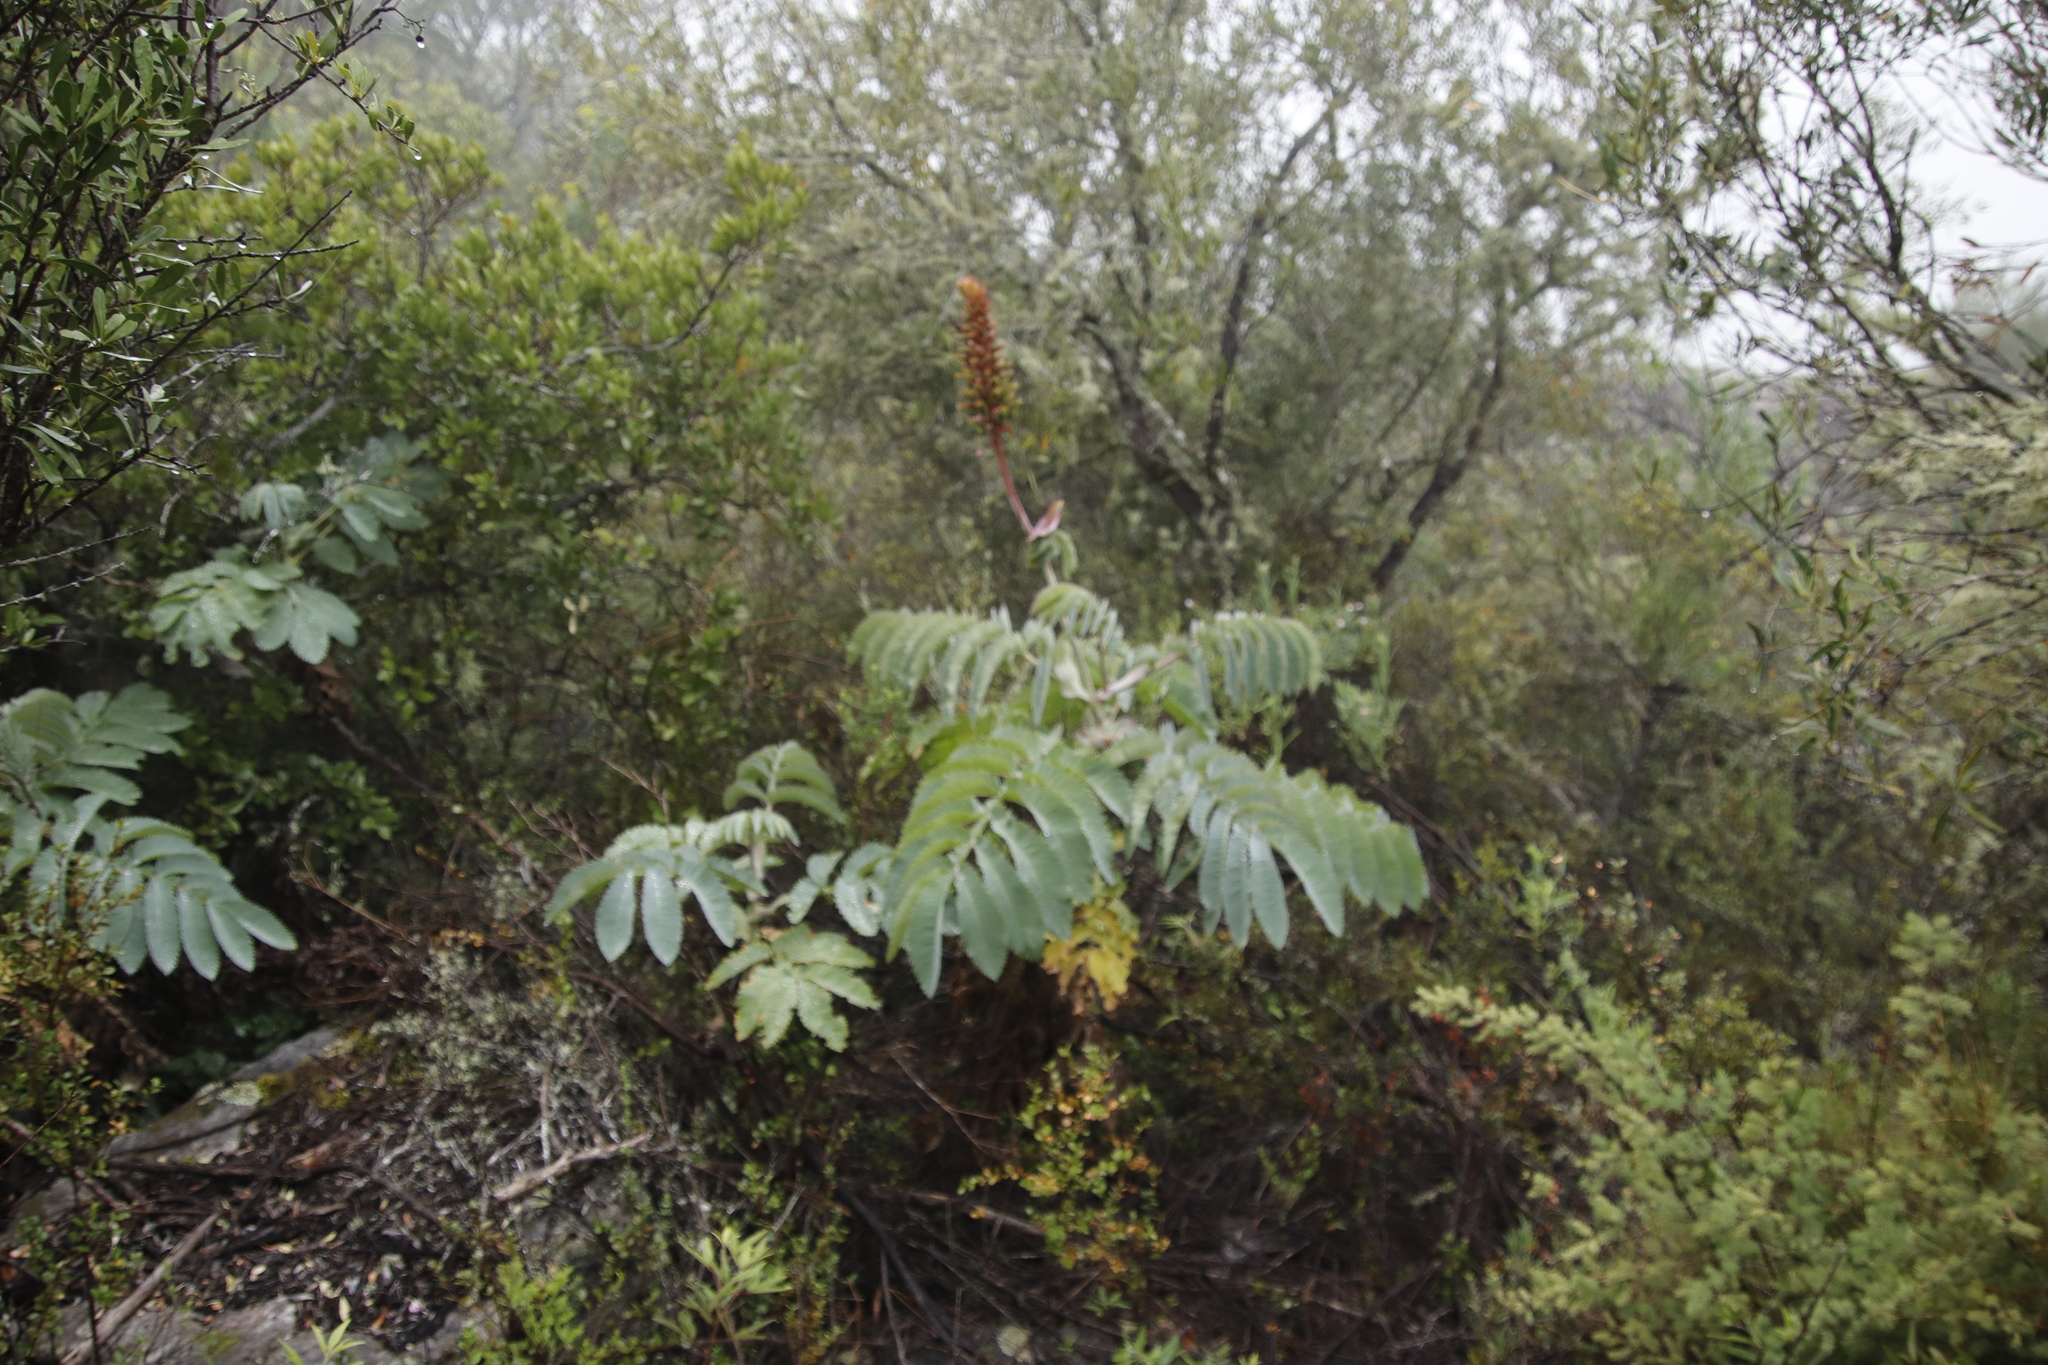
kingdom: Plantae
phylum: Tracheophyta
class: Magnoliopsida
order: Geraniales
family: Melianthaceae
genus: Melianthus
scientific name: Melianthus major
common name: Honey-flower
